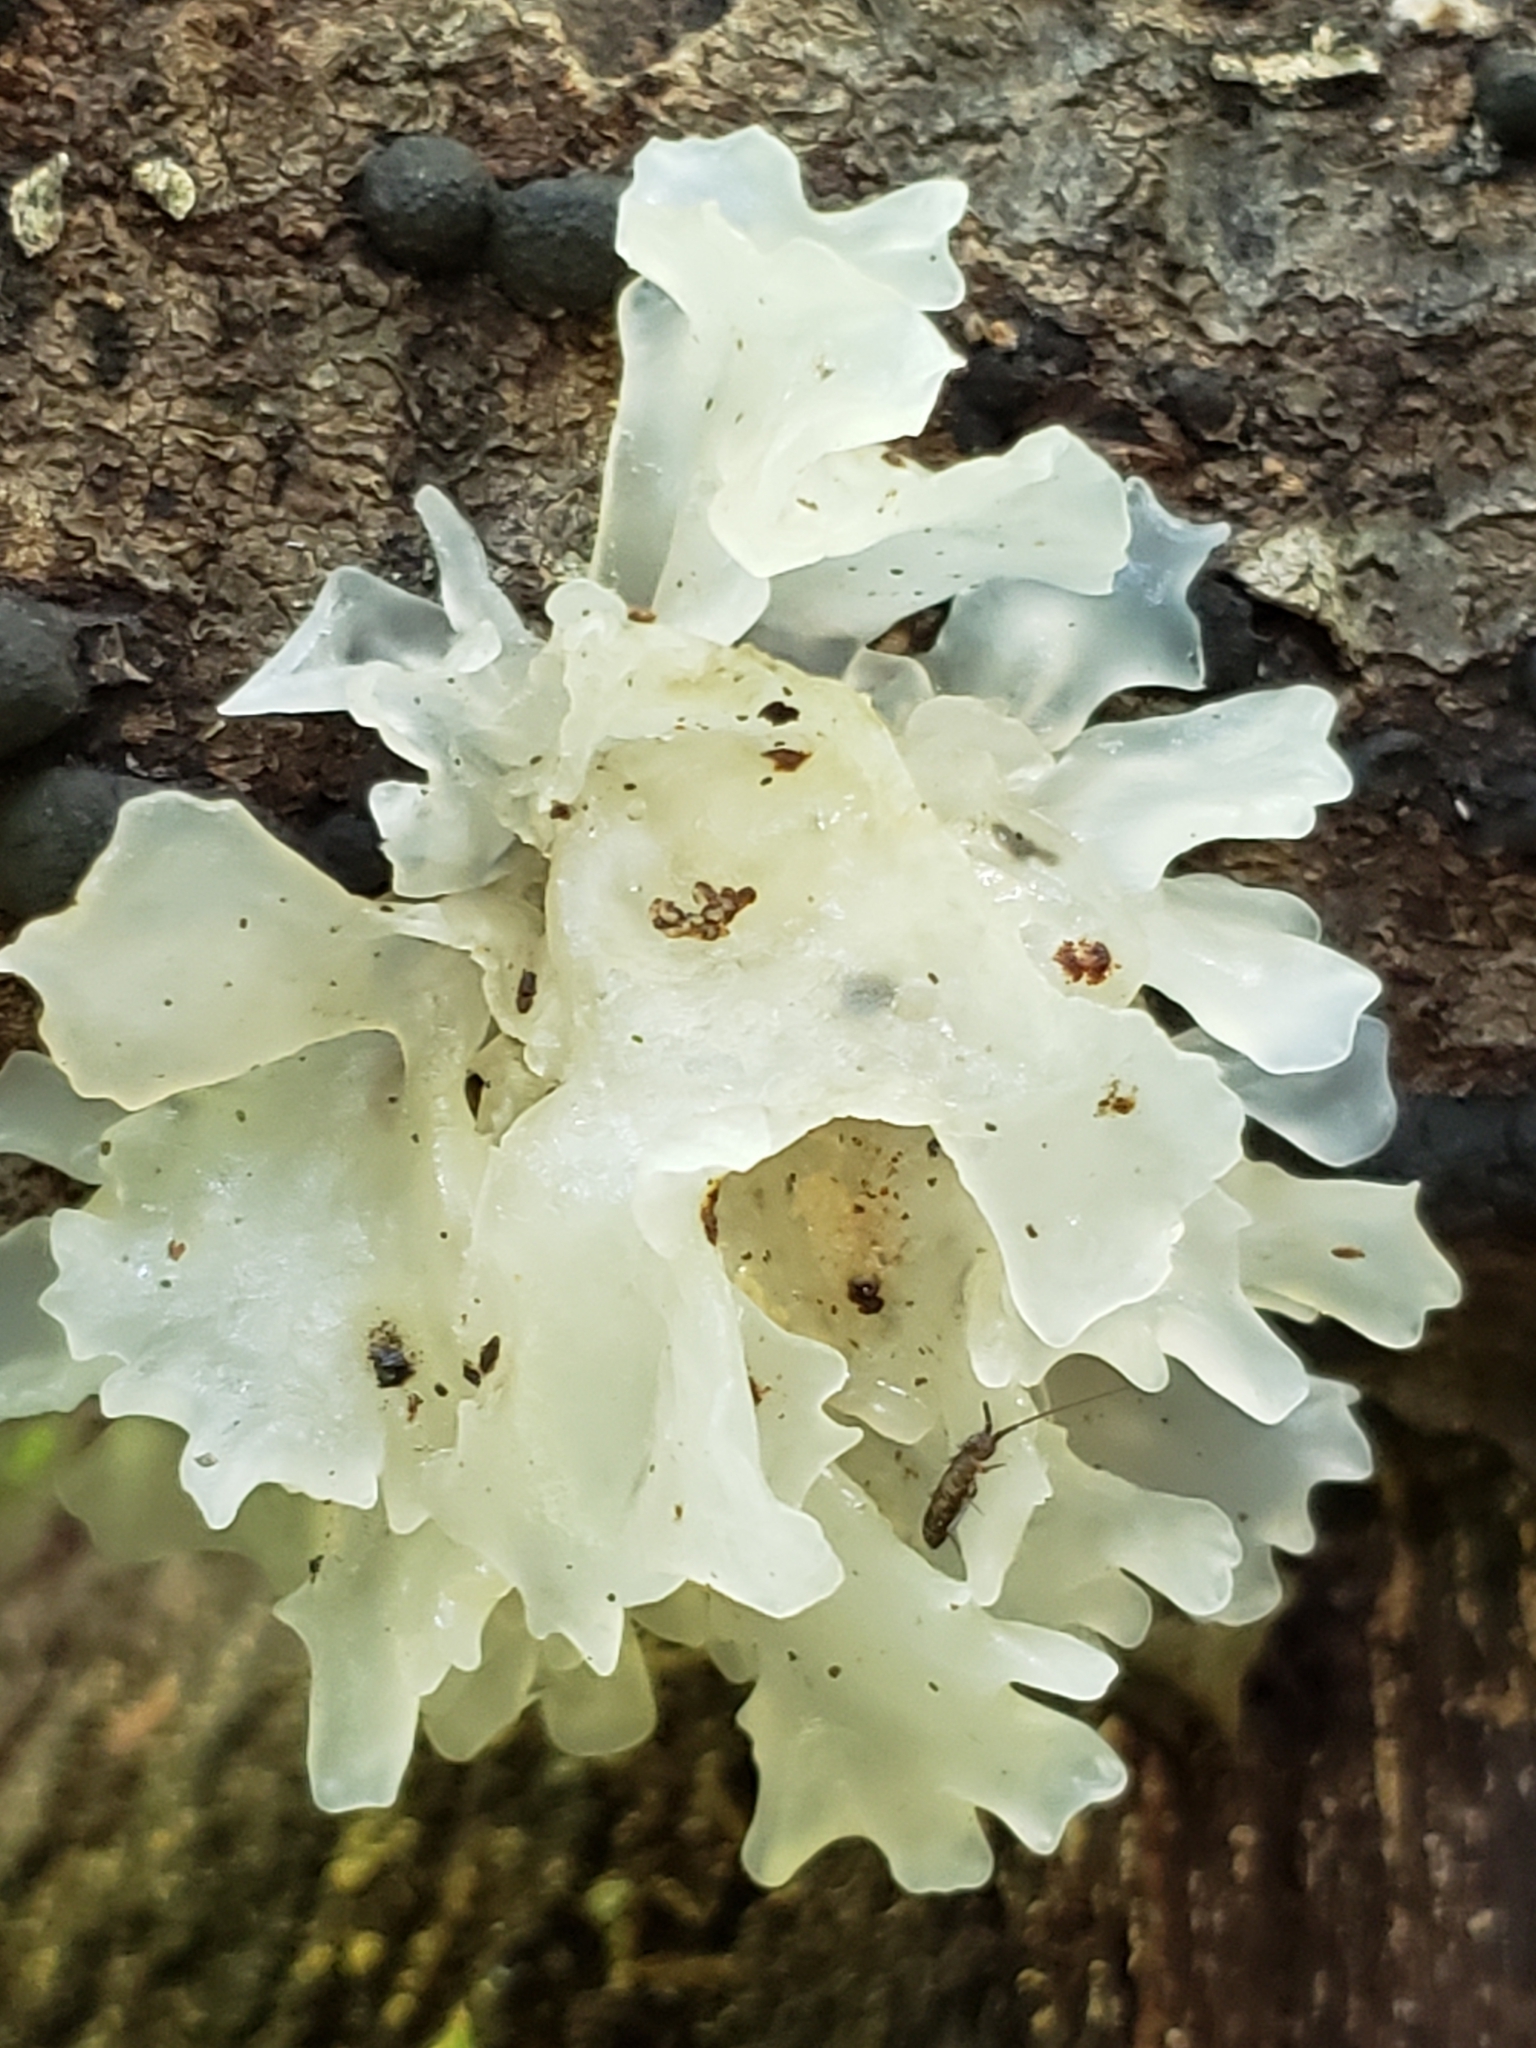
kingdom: Fungi
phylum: Basidiomycota
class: Tremellomycetes
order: Tremellales
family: Tremellaceae
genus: Tremella
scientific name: Tremella fuciformis
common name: Snow fungus
